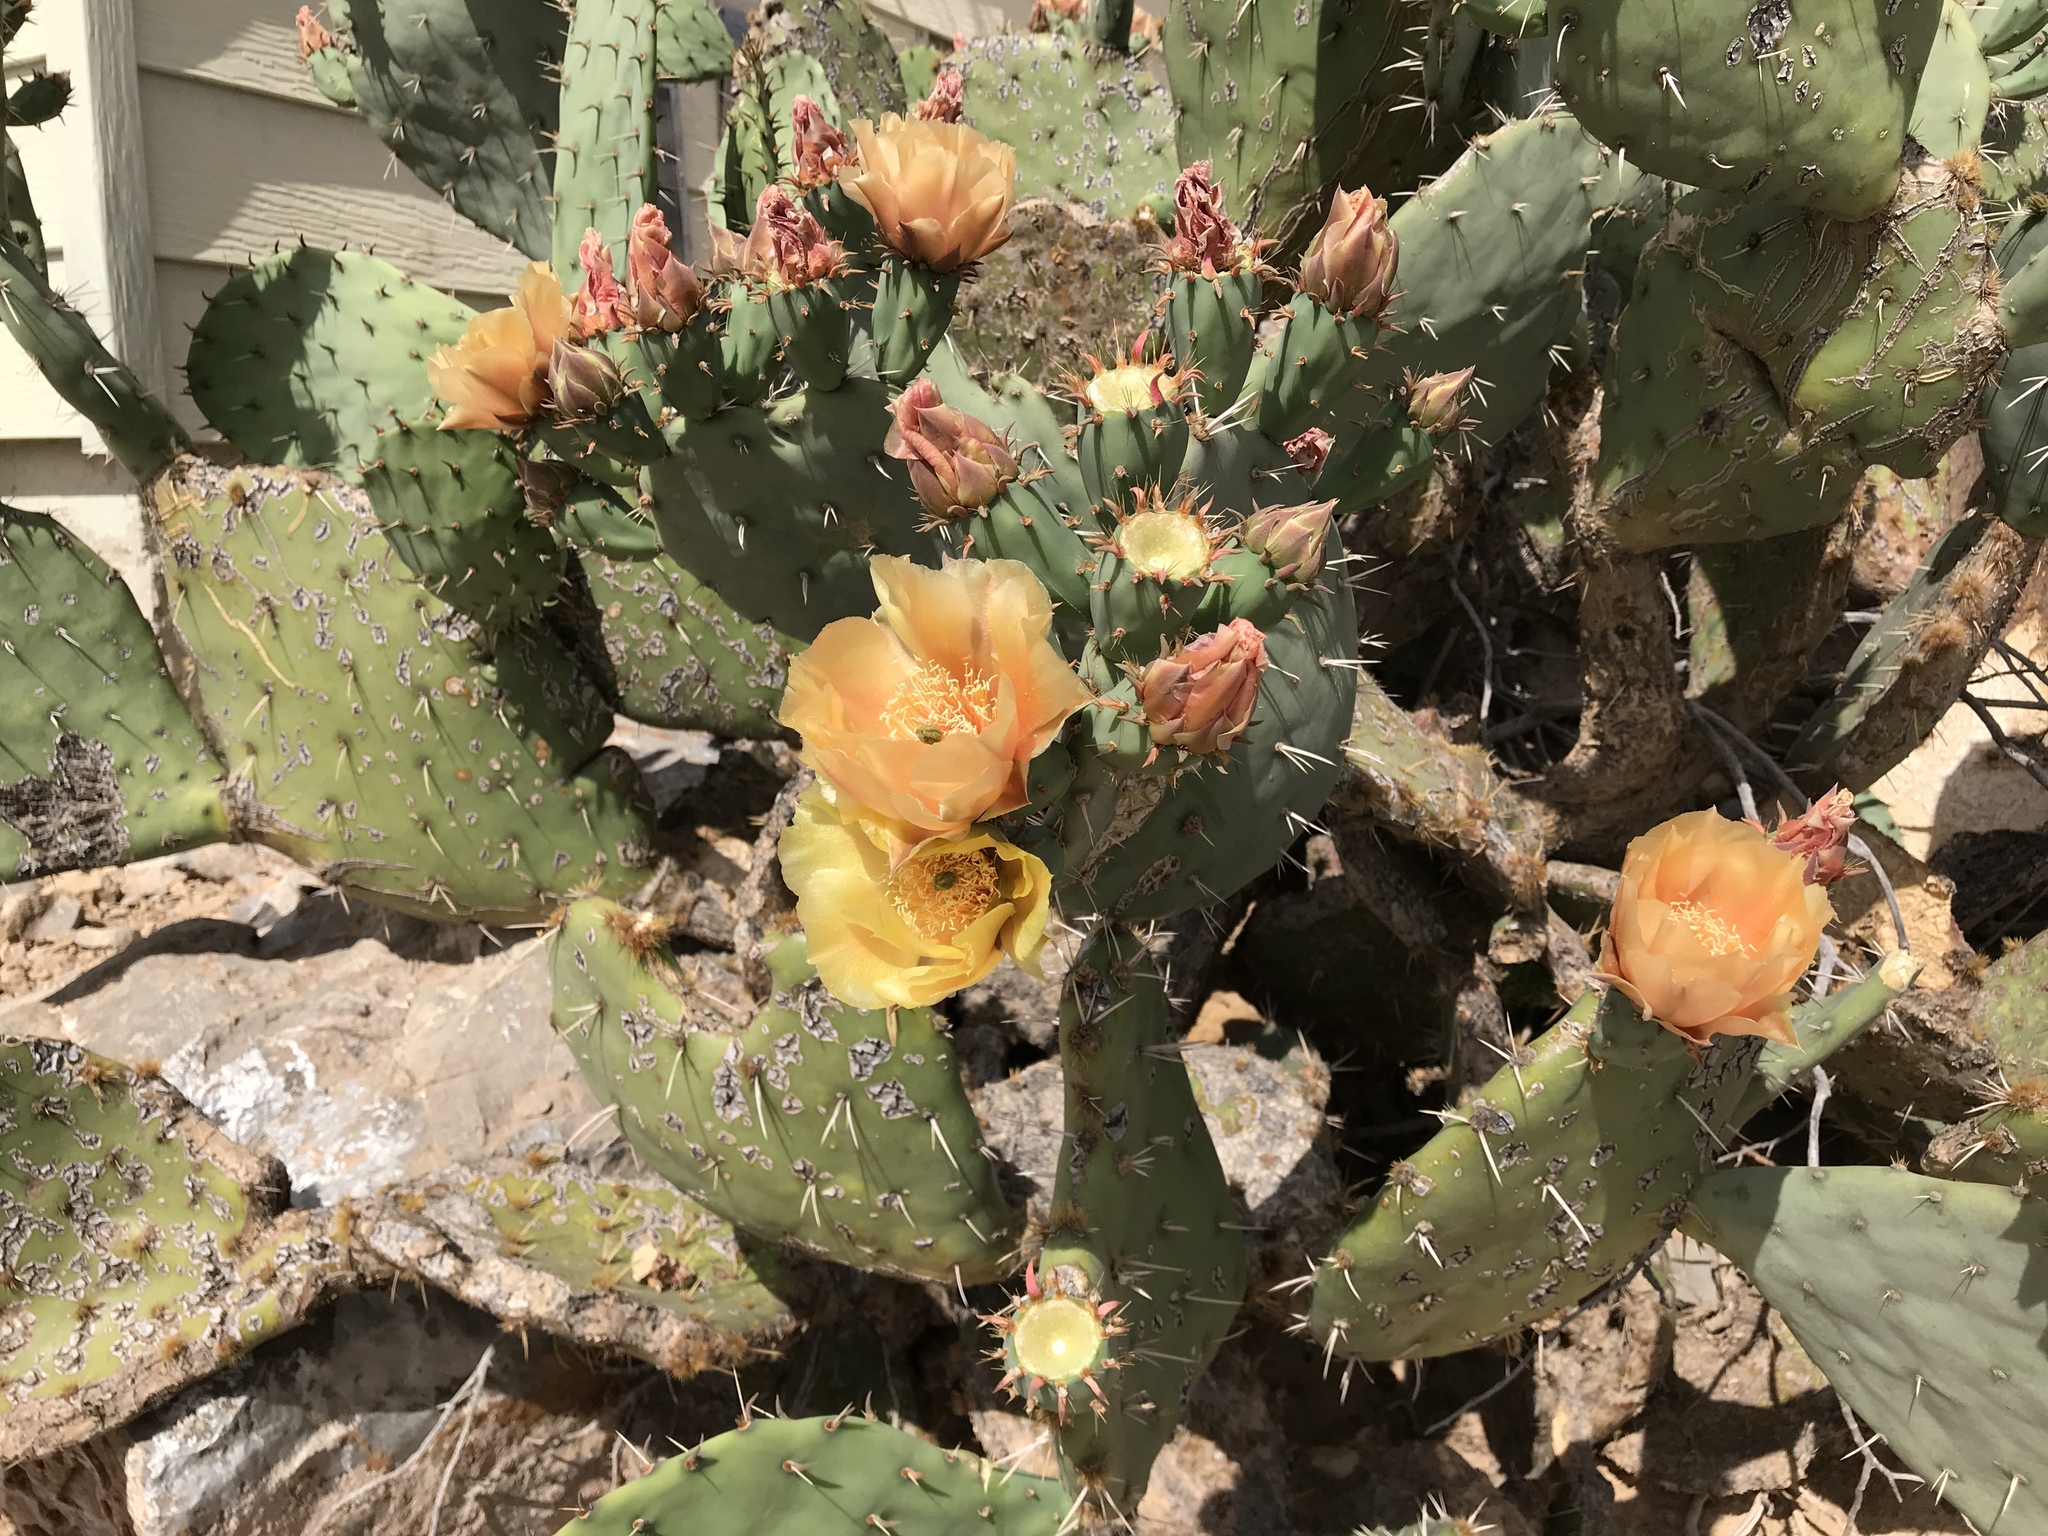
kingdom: Plantae
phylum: Tracheophyta
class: Magnoliopsida
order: Caryophyllales
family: Cactaceae
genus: Opuntia
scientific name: Opuntia orbiculata
